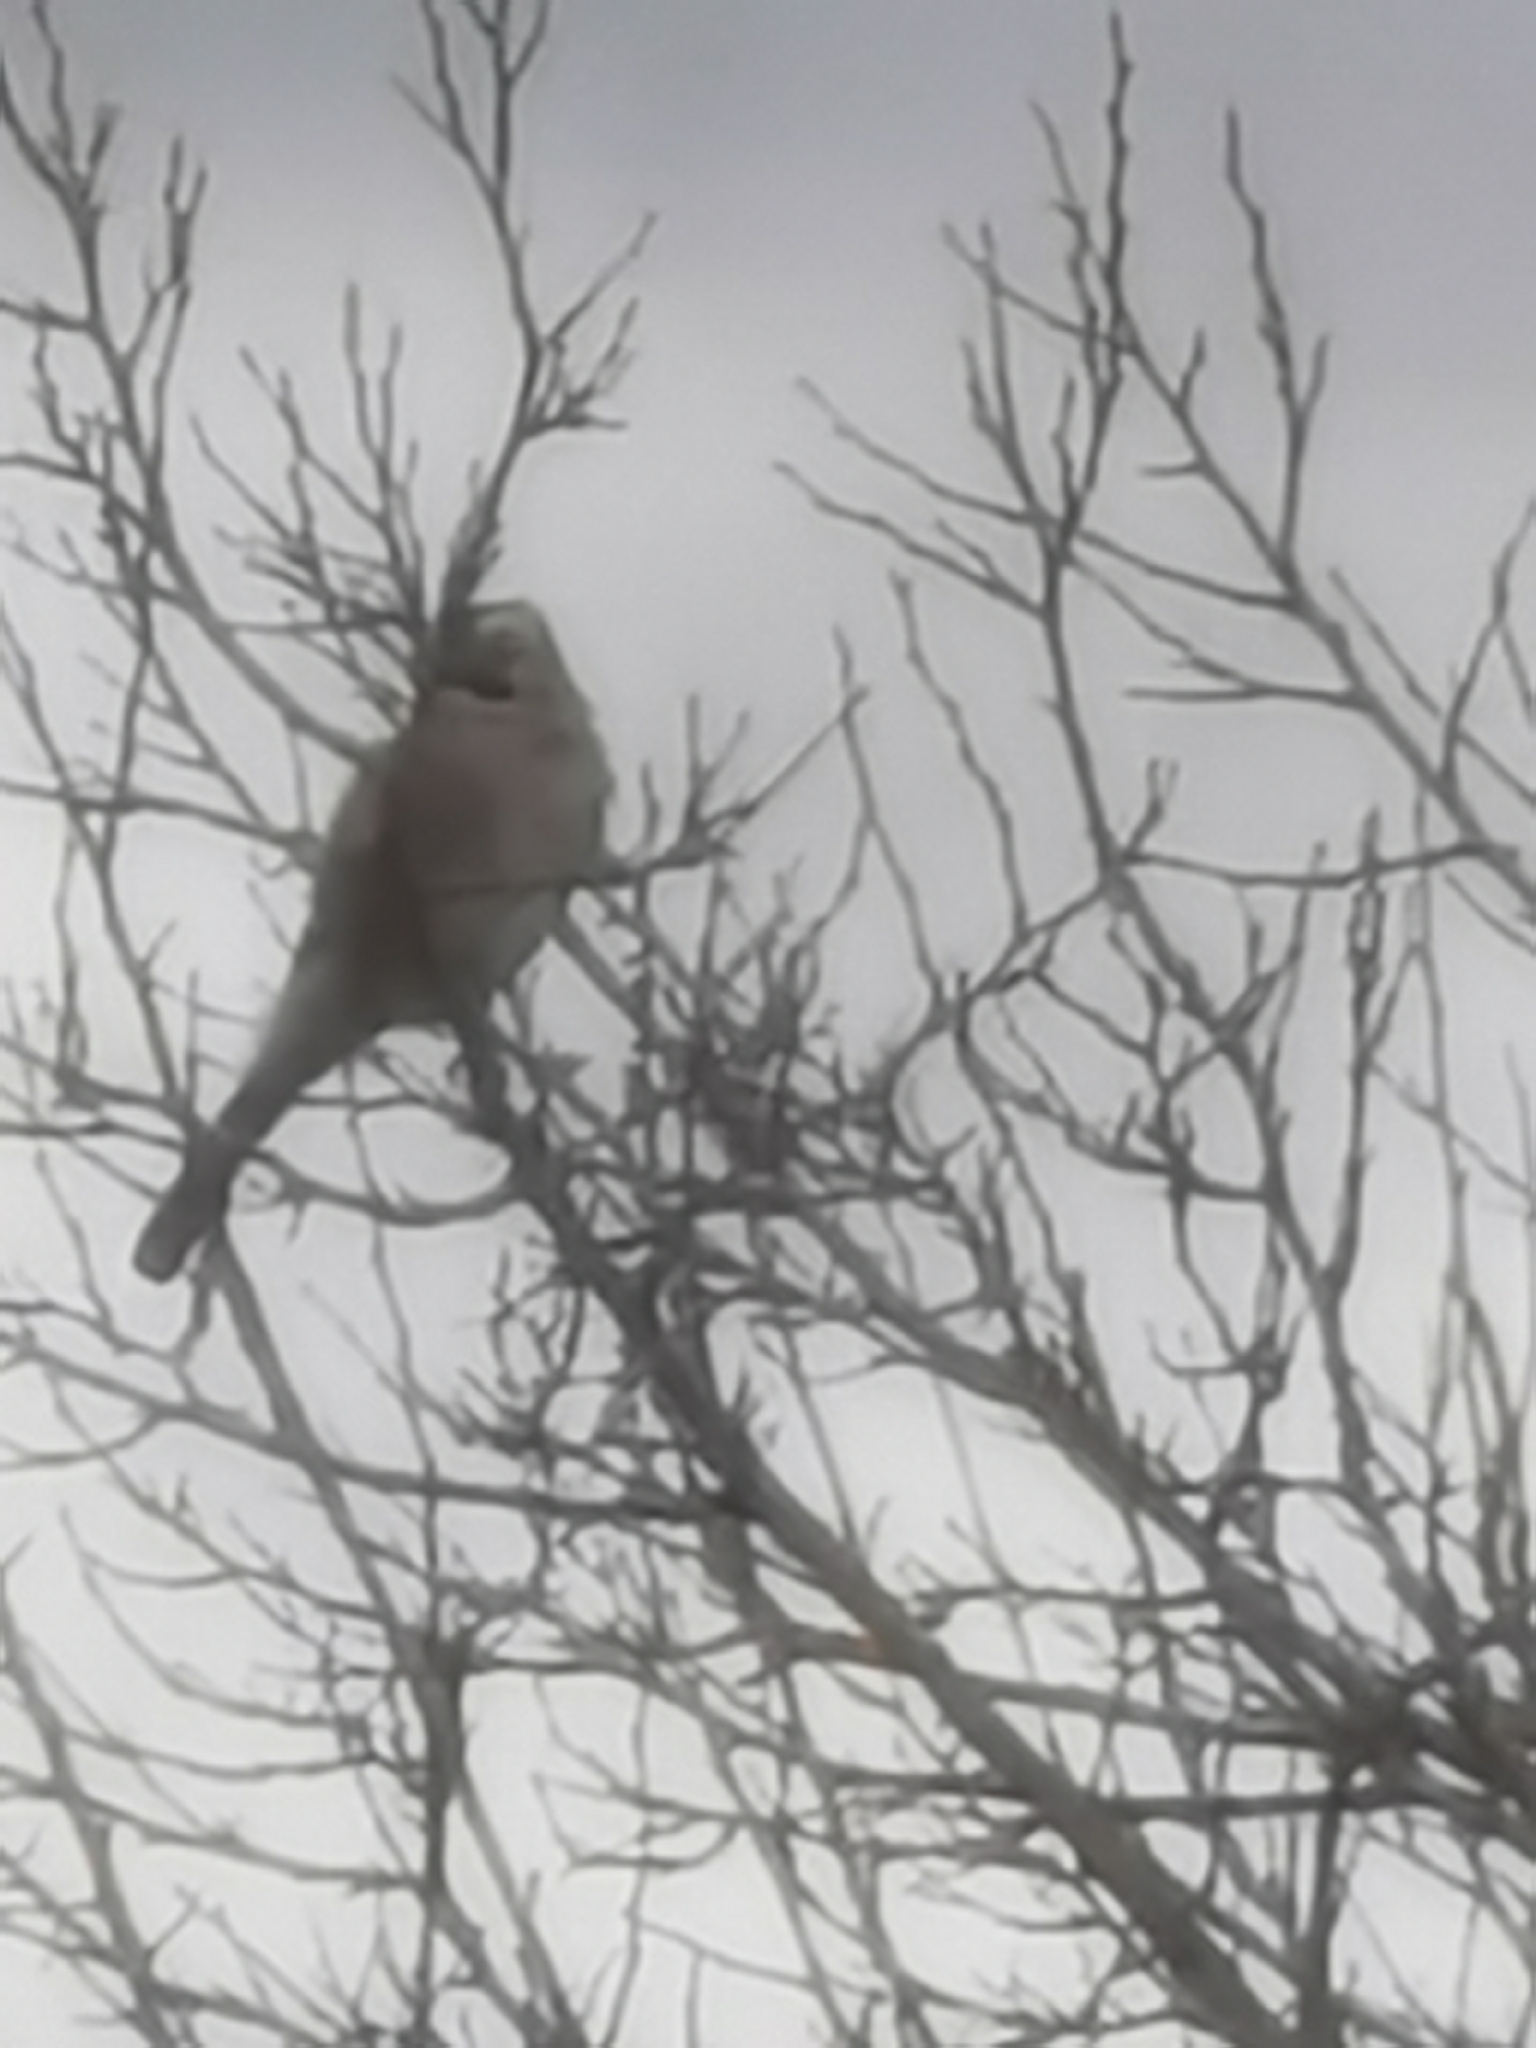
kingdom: Animalia
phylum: Chordata
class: Aves
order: Passeriformes
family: Corvidae
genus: Garrulus
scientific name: Garrulus glandarius
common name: Eurasian jay
